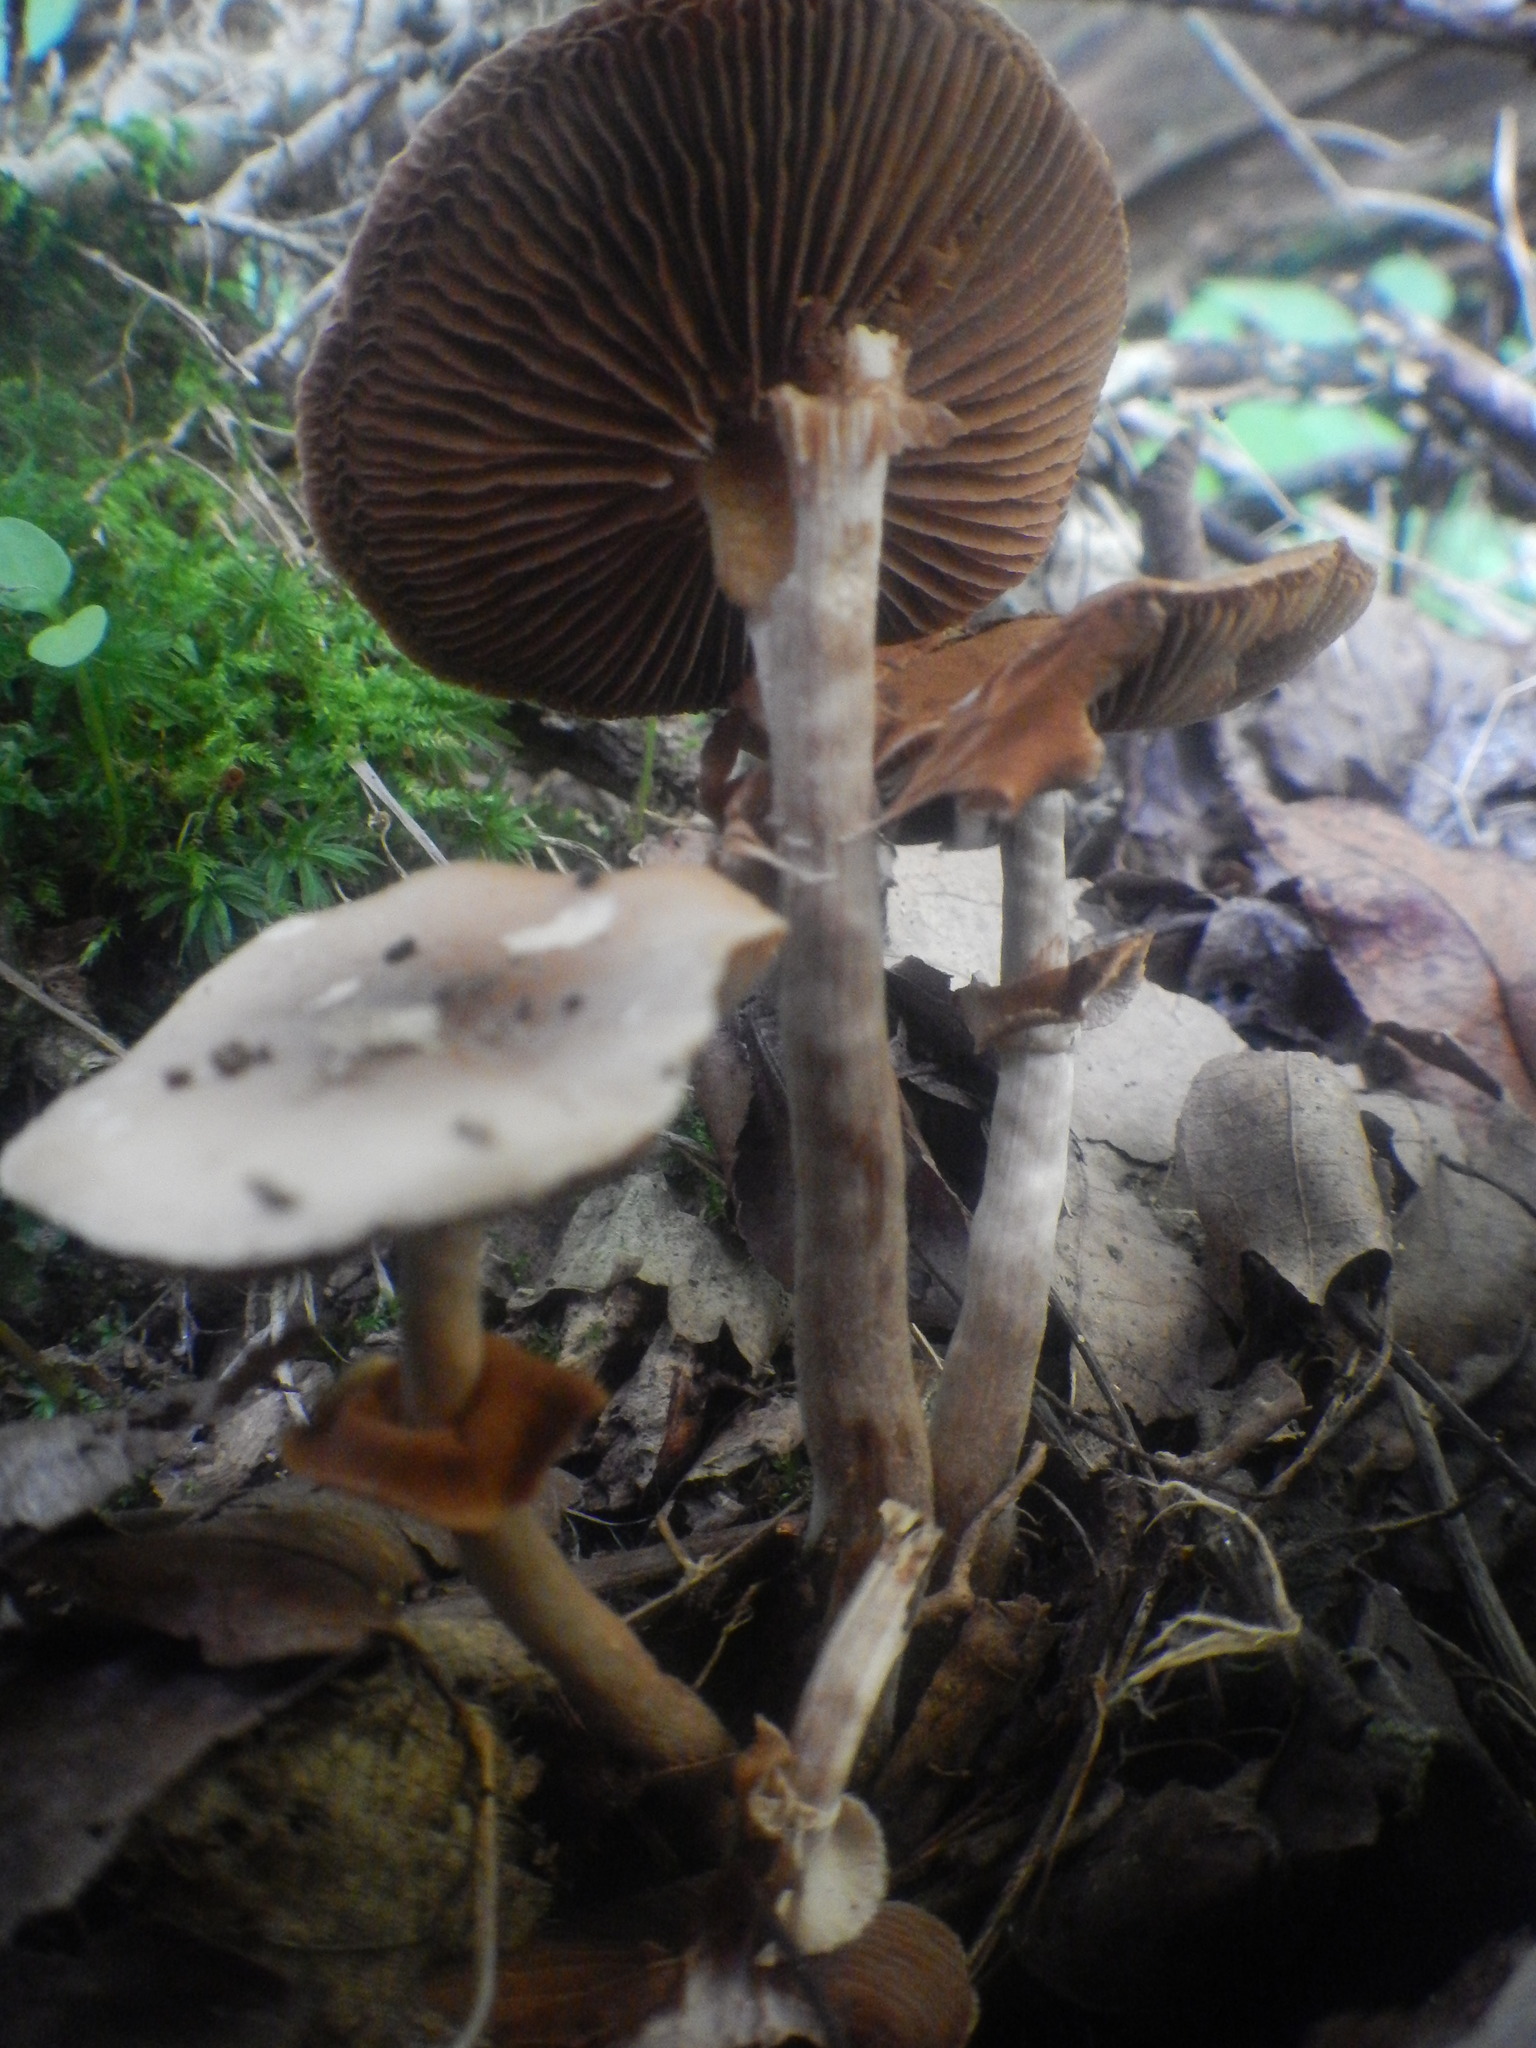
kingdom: Fungi
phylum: Basidiomycota
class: Agaricomycetes
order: Agaricales
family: Strophariaceae
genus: Agrocybe
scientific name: Agrocybe acericola
